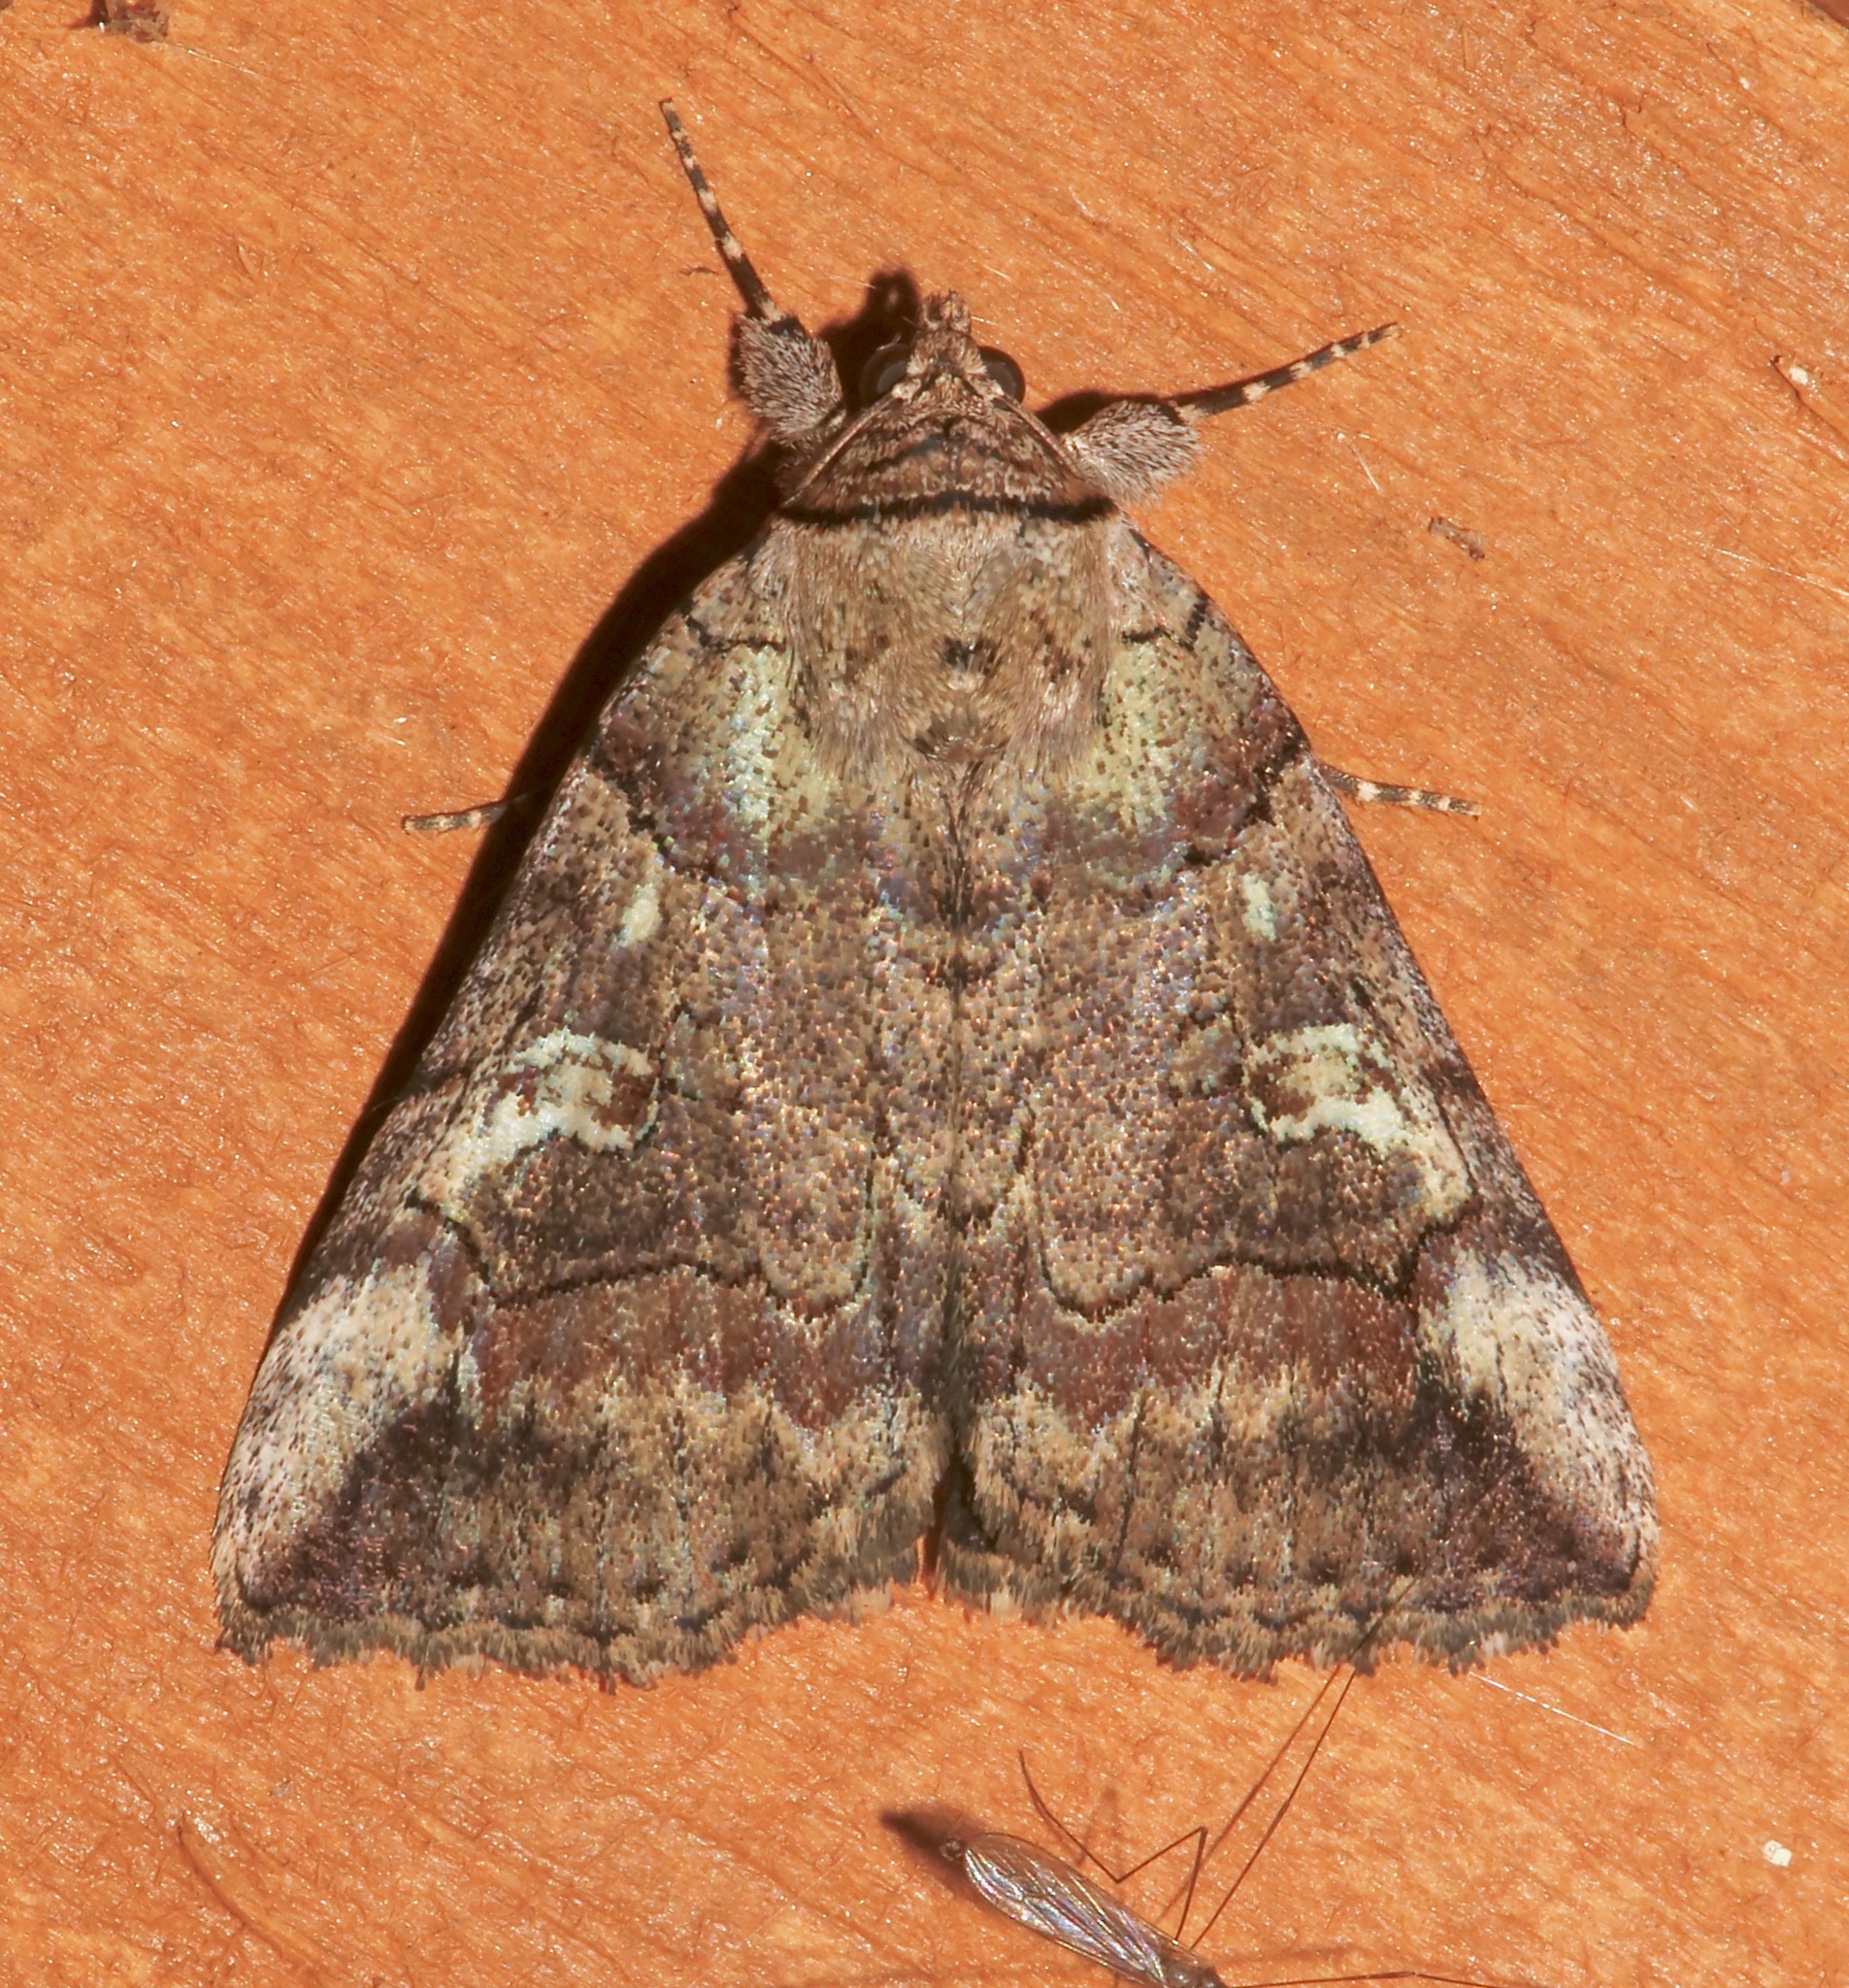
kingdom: Animalia
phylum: Arthropoda
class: Insecta
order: Lepidoptera
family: Erebidae
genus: Catocala
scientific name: Catocala similis
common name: Similar underwing
